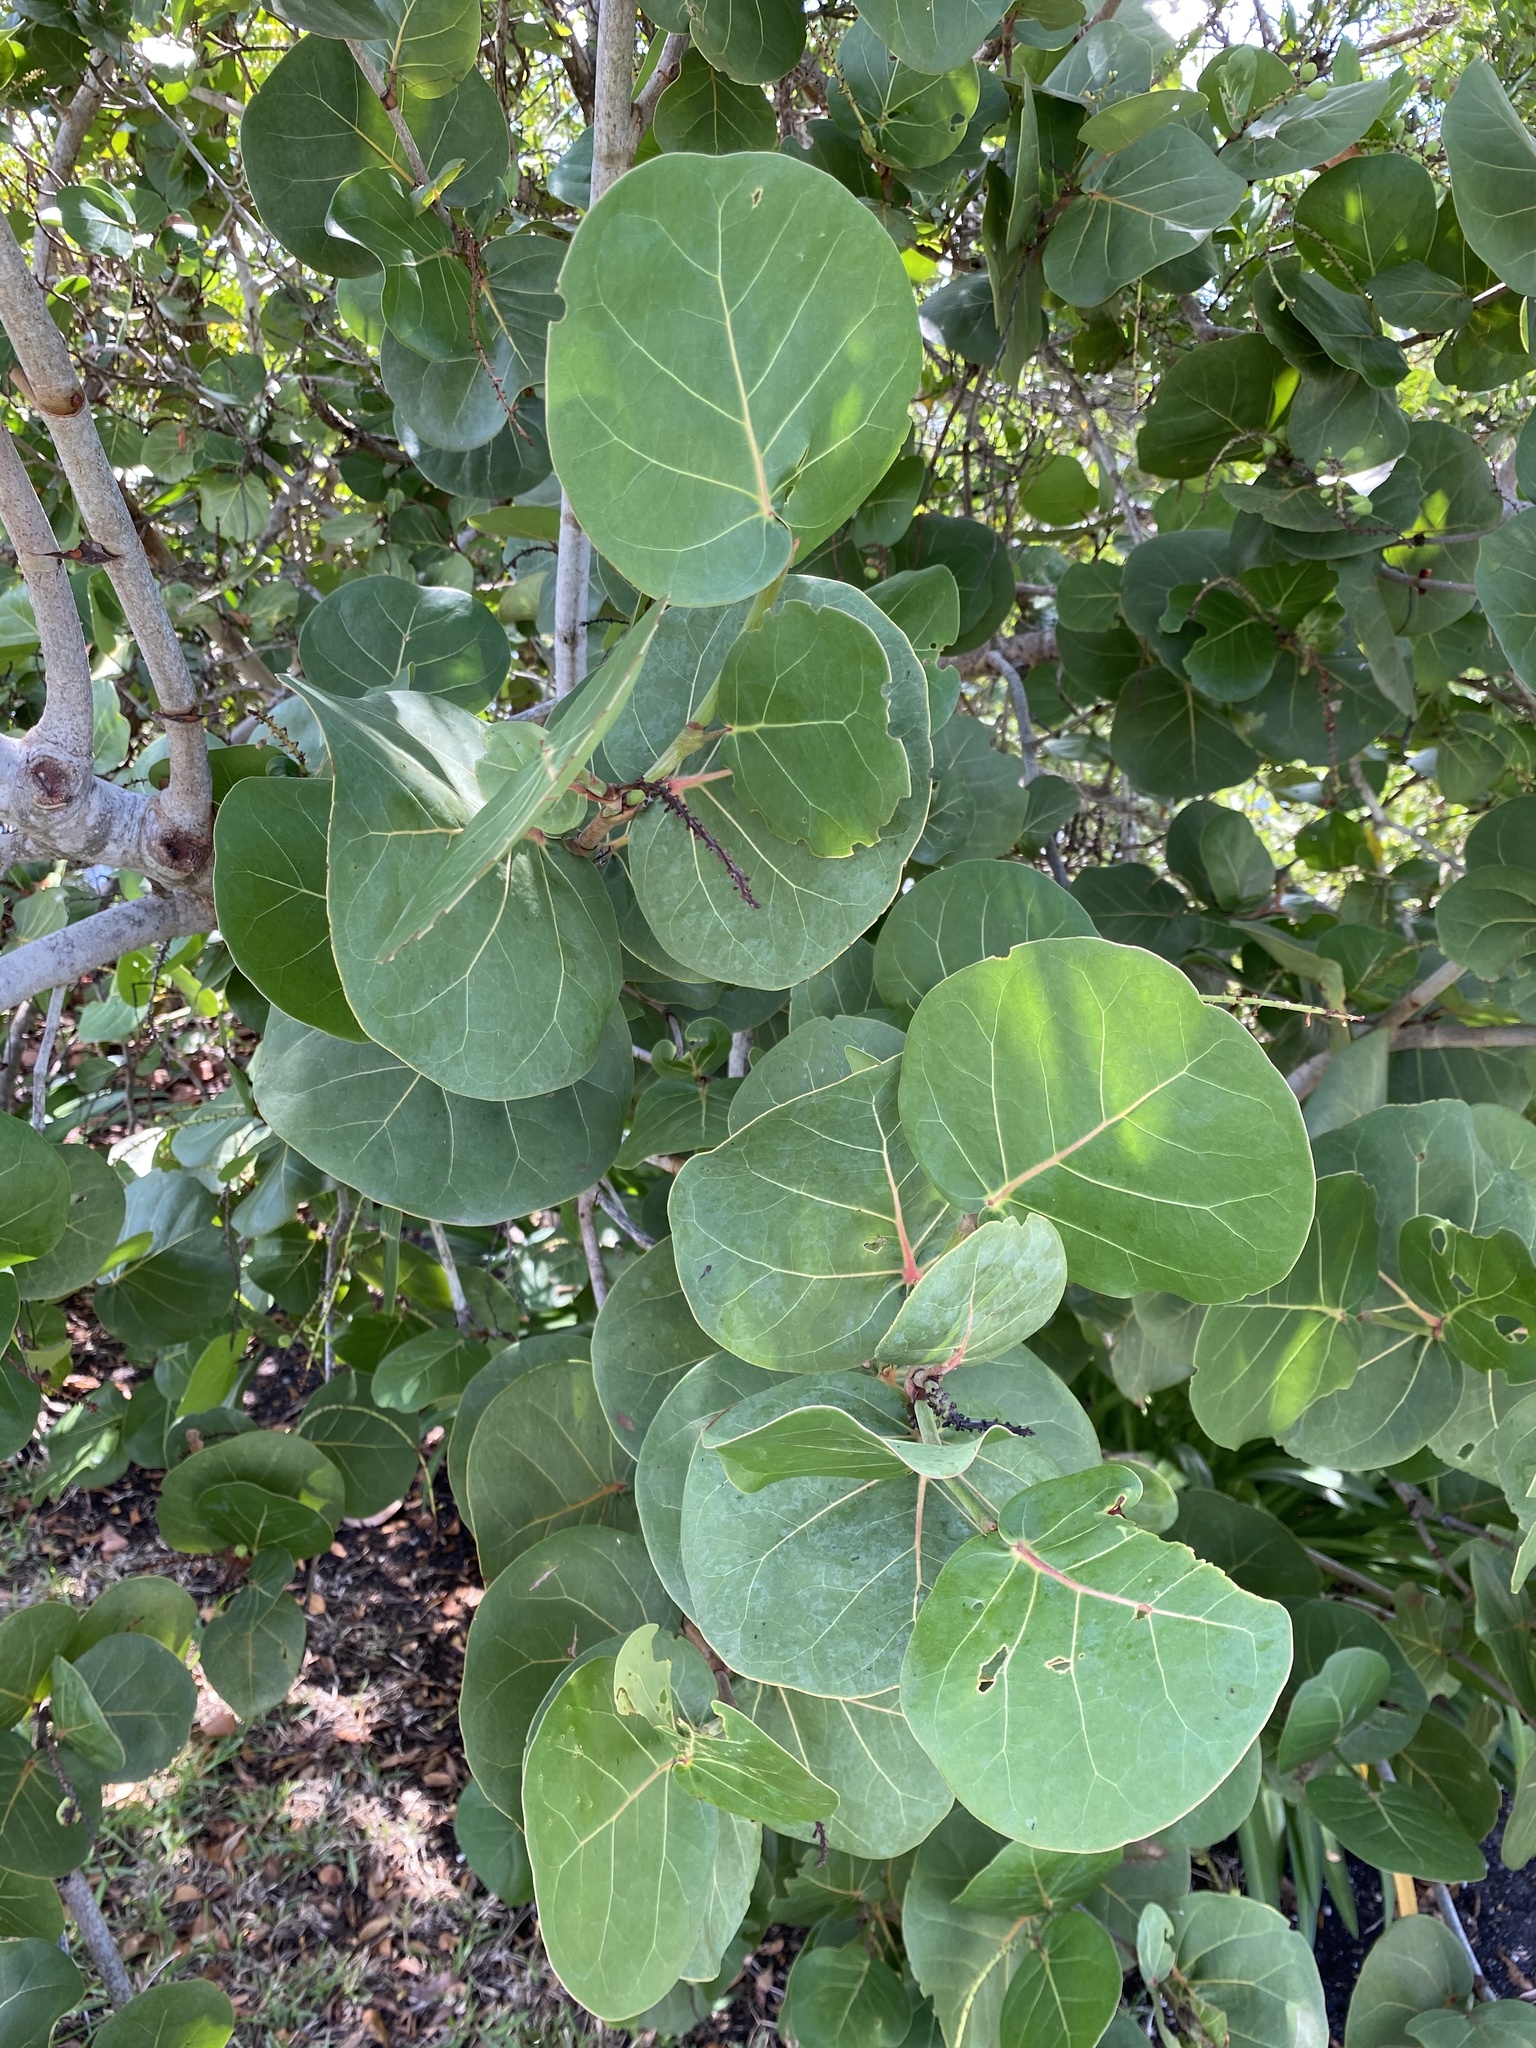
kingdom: Plantae
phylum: Tracheophyta
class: Magnoliopsida
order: Caryophyllales
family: Polygonaceae
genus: Coccoloba
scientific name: Coccoloba uvifera
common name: Seagrape
